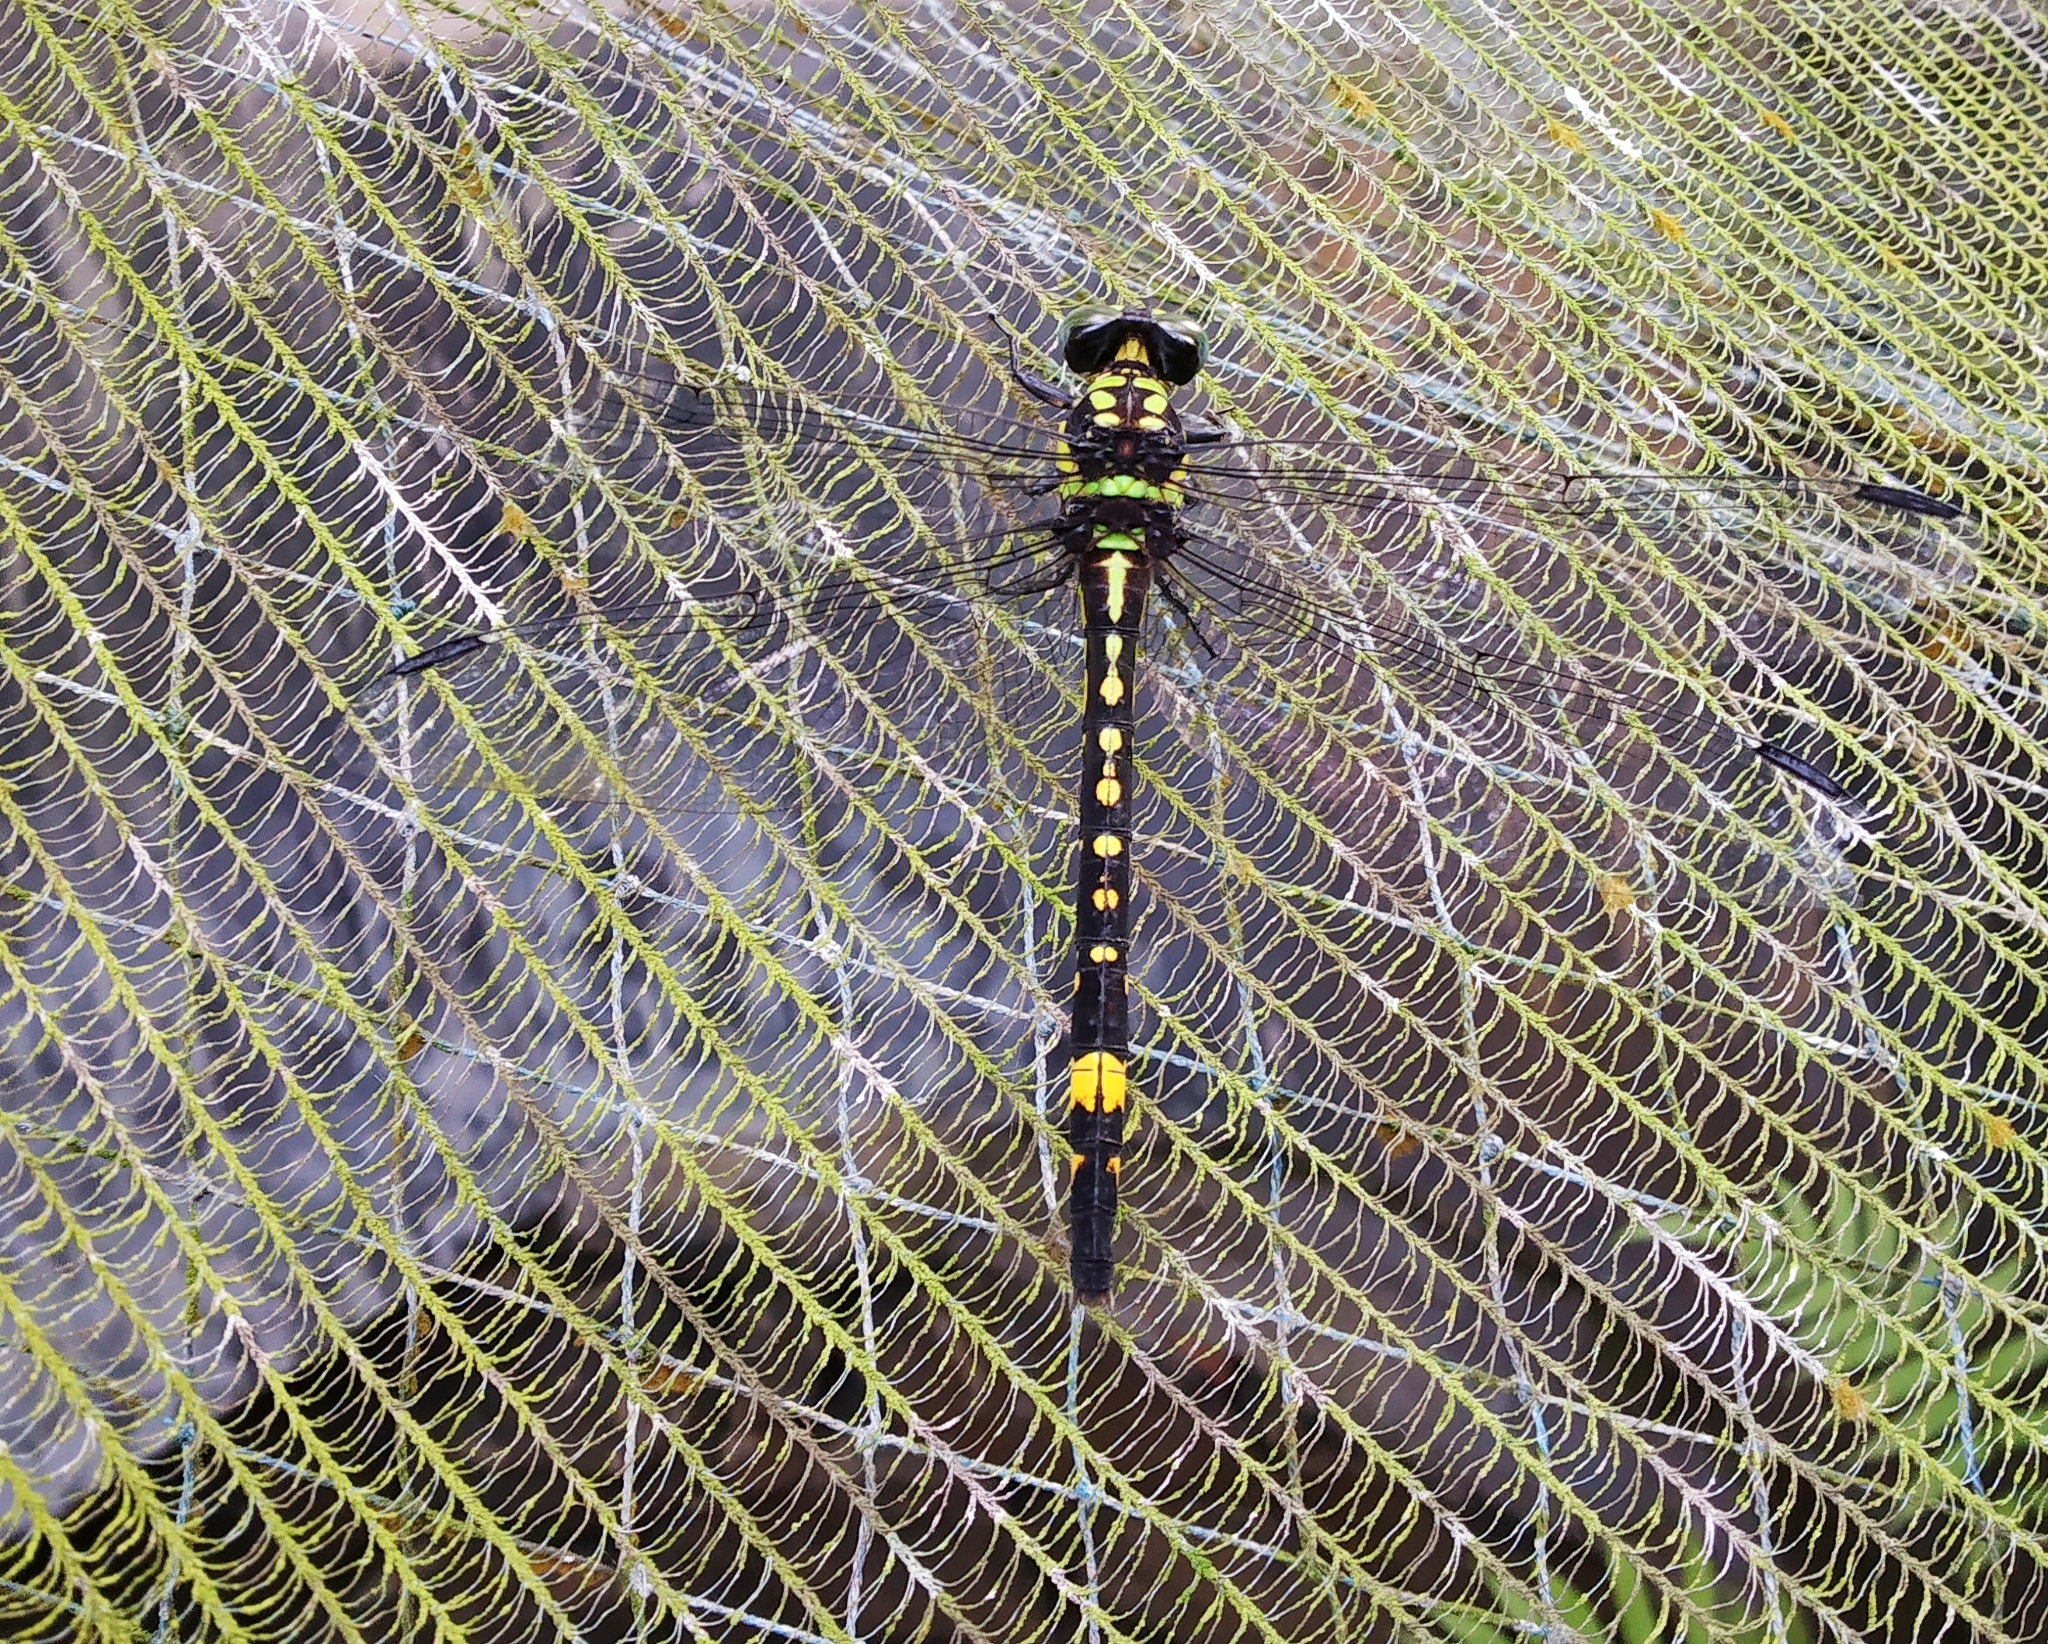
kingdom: Animalia
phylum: Arthropoda
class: Insecta
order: Odonata
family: Gomphidae
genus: Gomphidia
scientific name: Gomphidia kodaguensis
